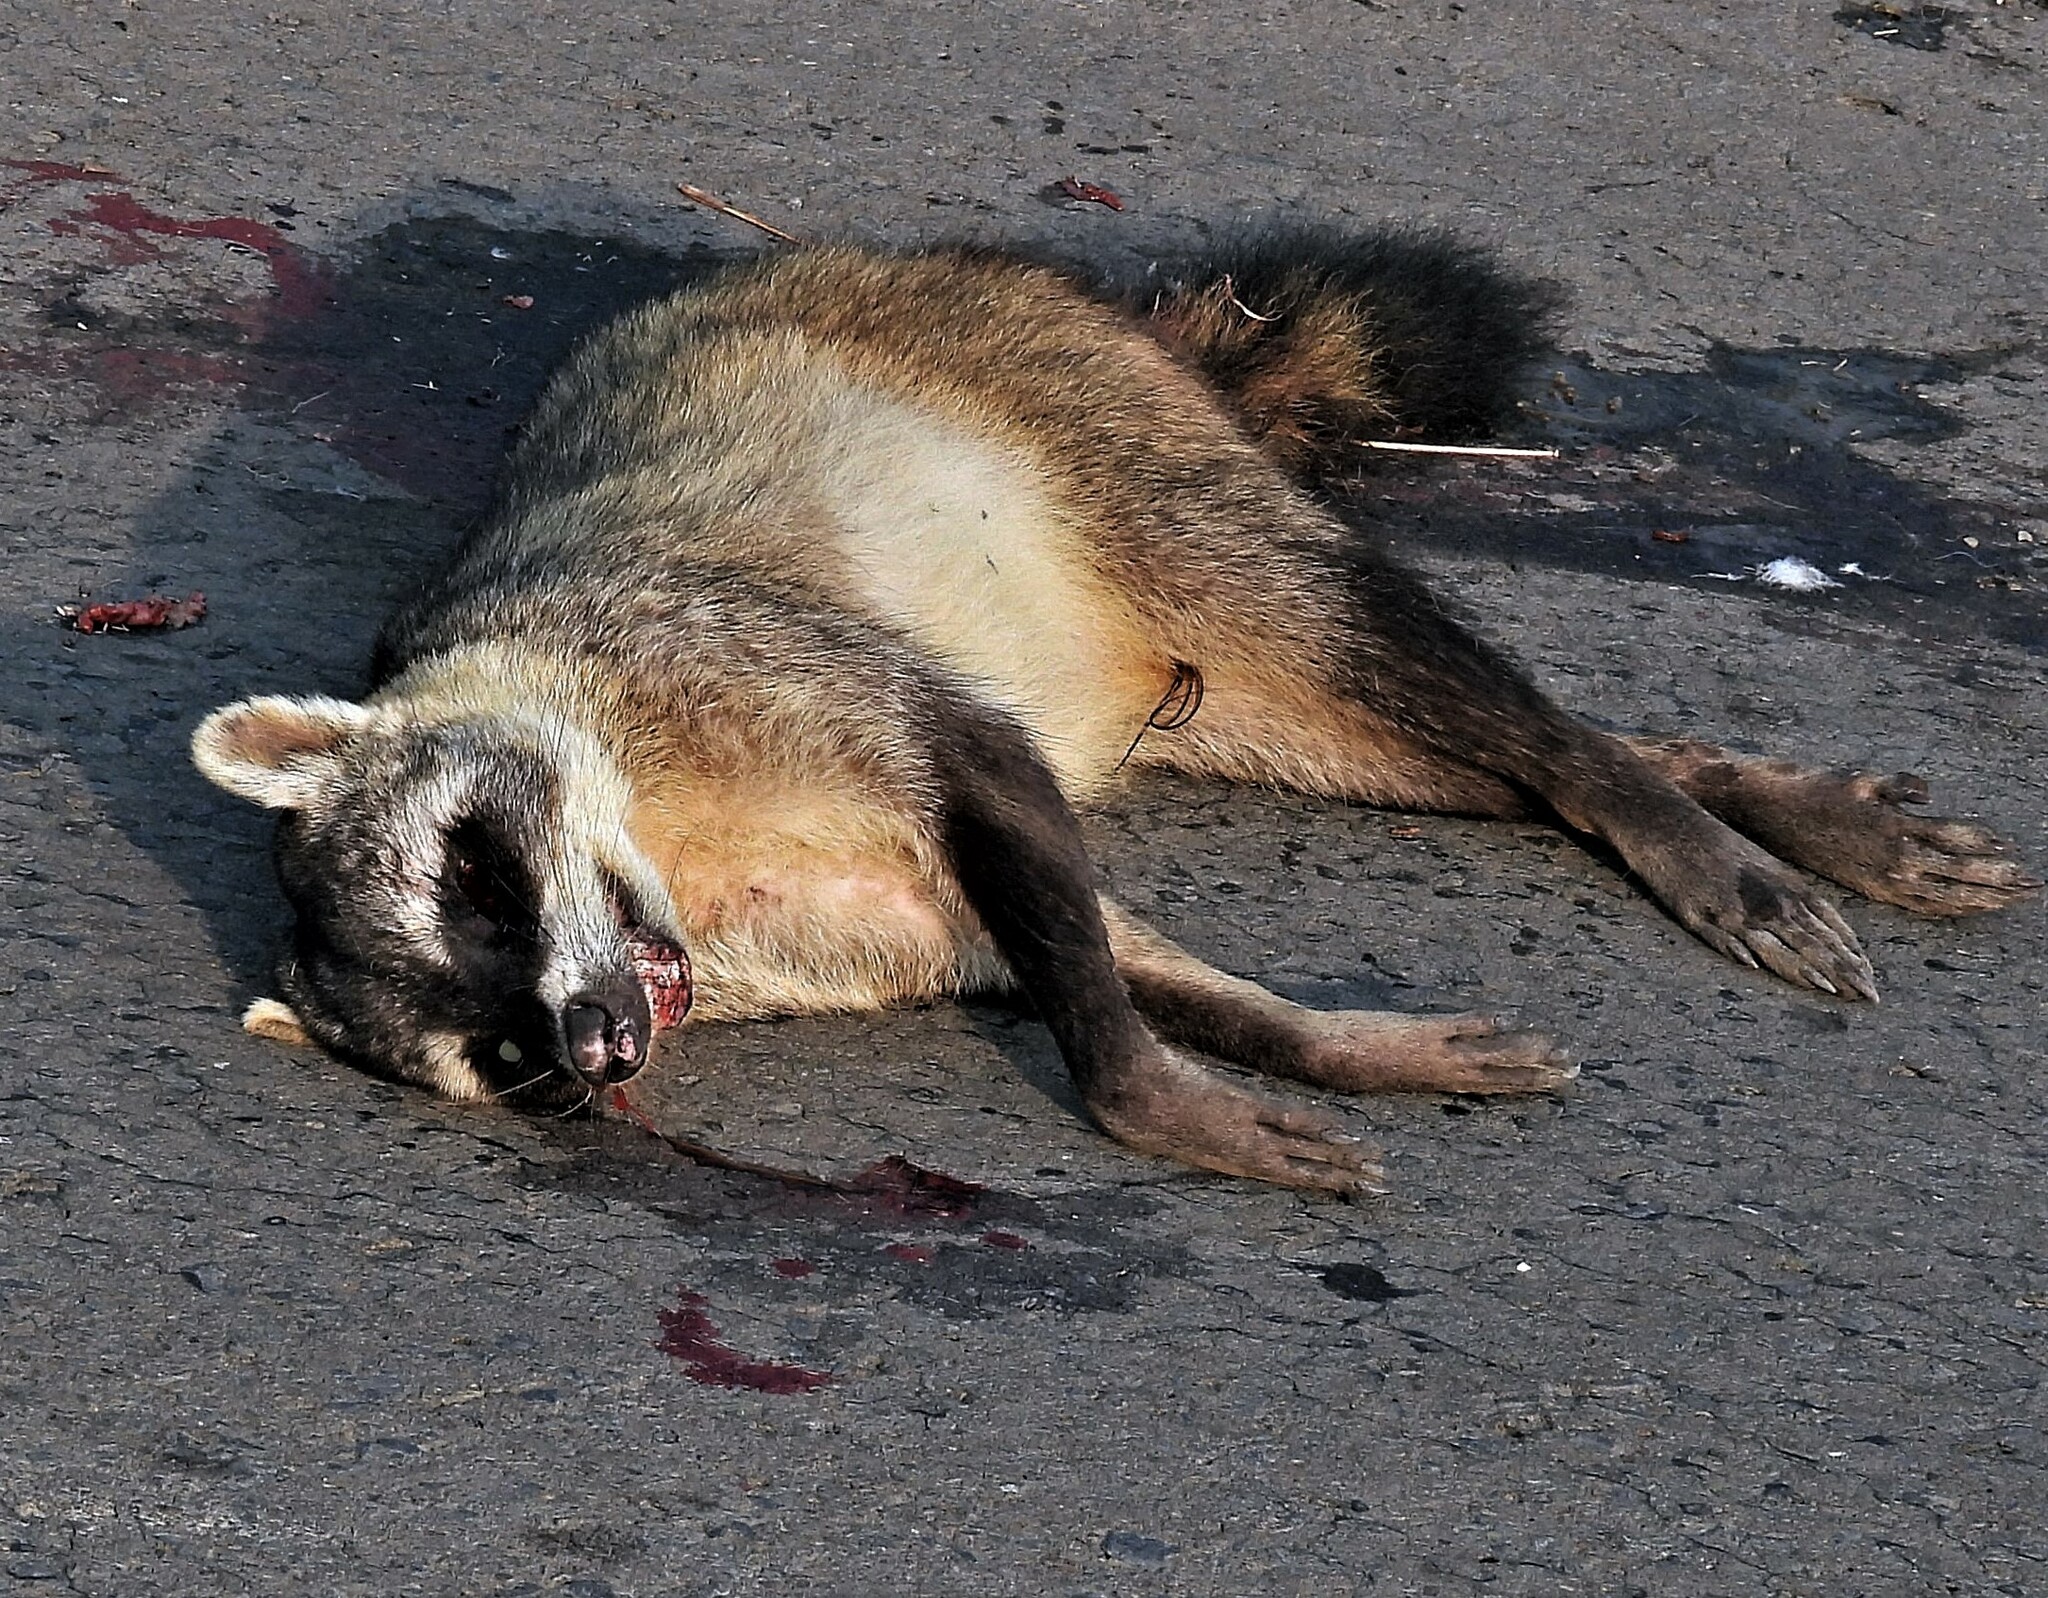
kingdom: Animalia
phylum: Chordata
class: Mammalia
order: Carnivora
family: Procyonidae
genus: Procyon
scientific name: Procyon cancrivorus
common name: Crab-eating raccoon
